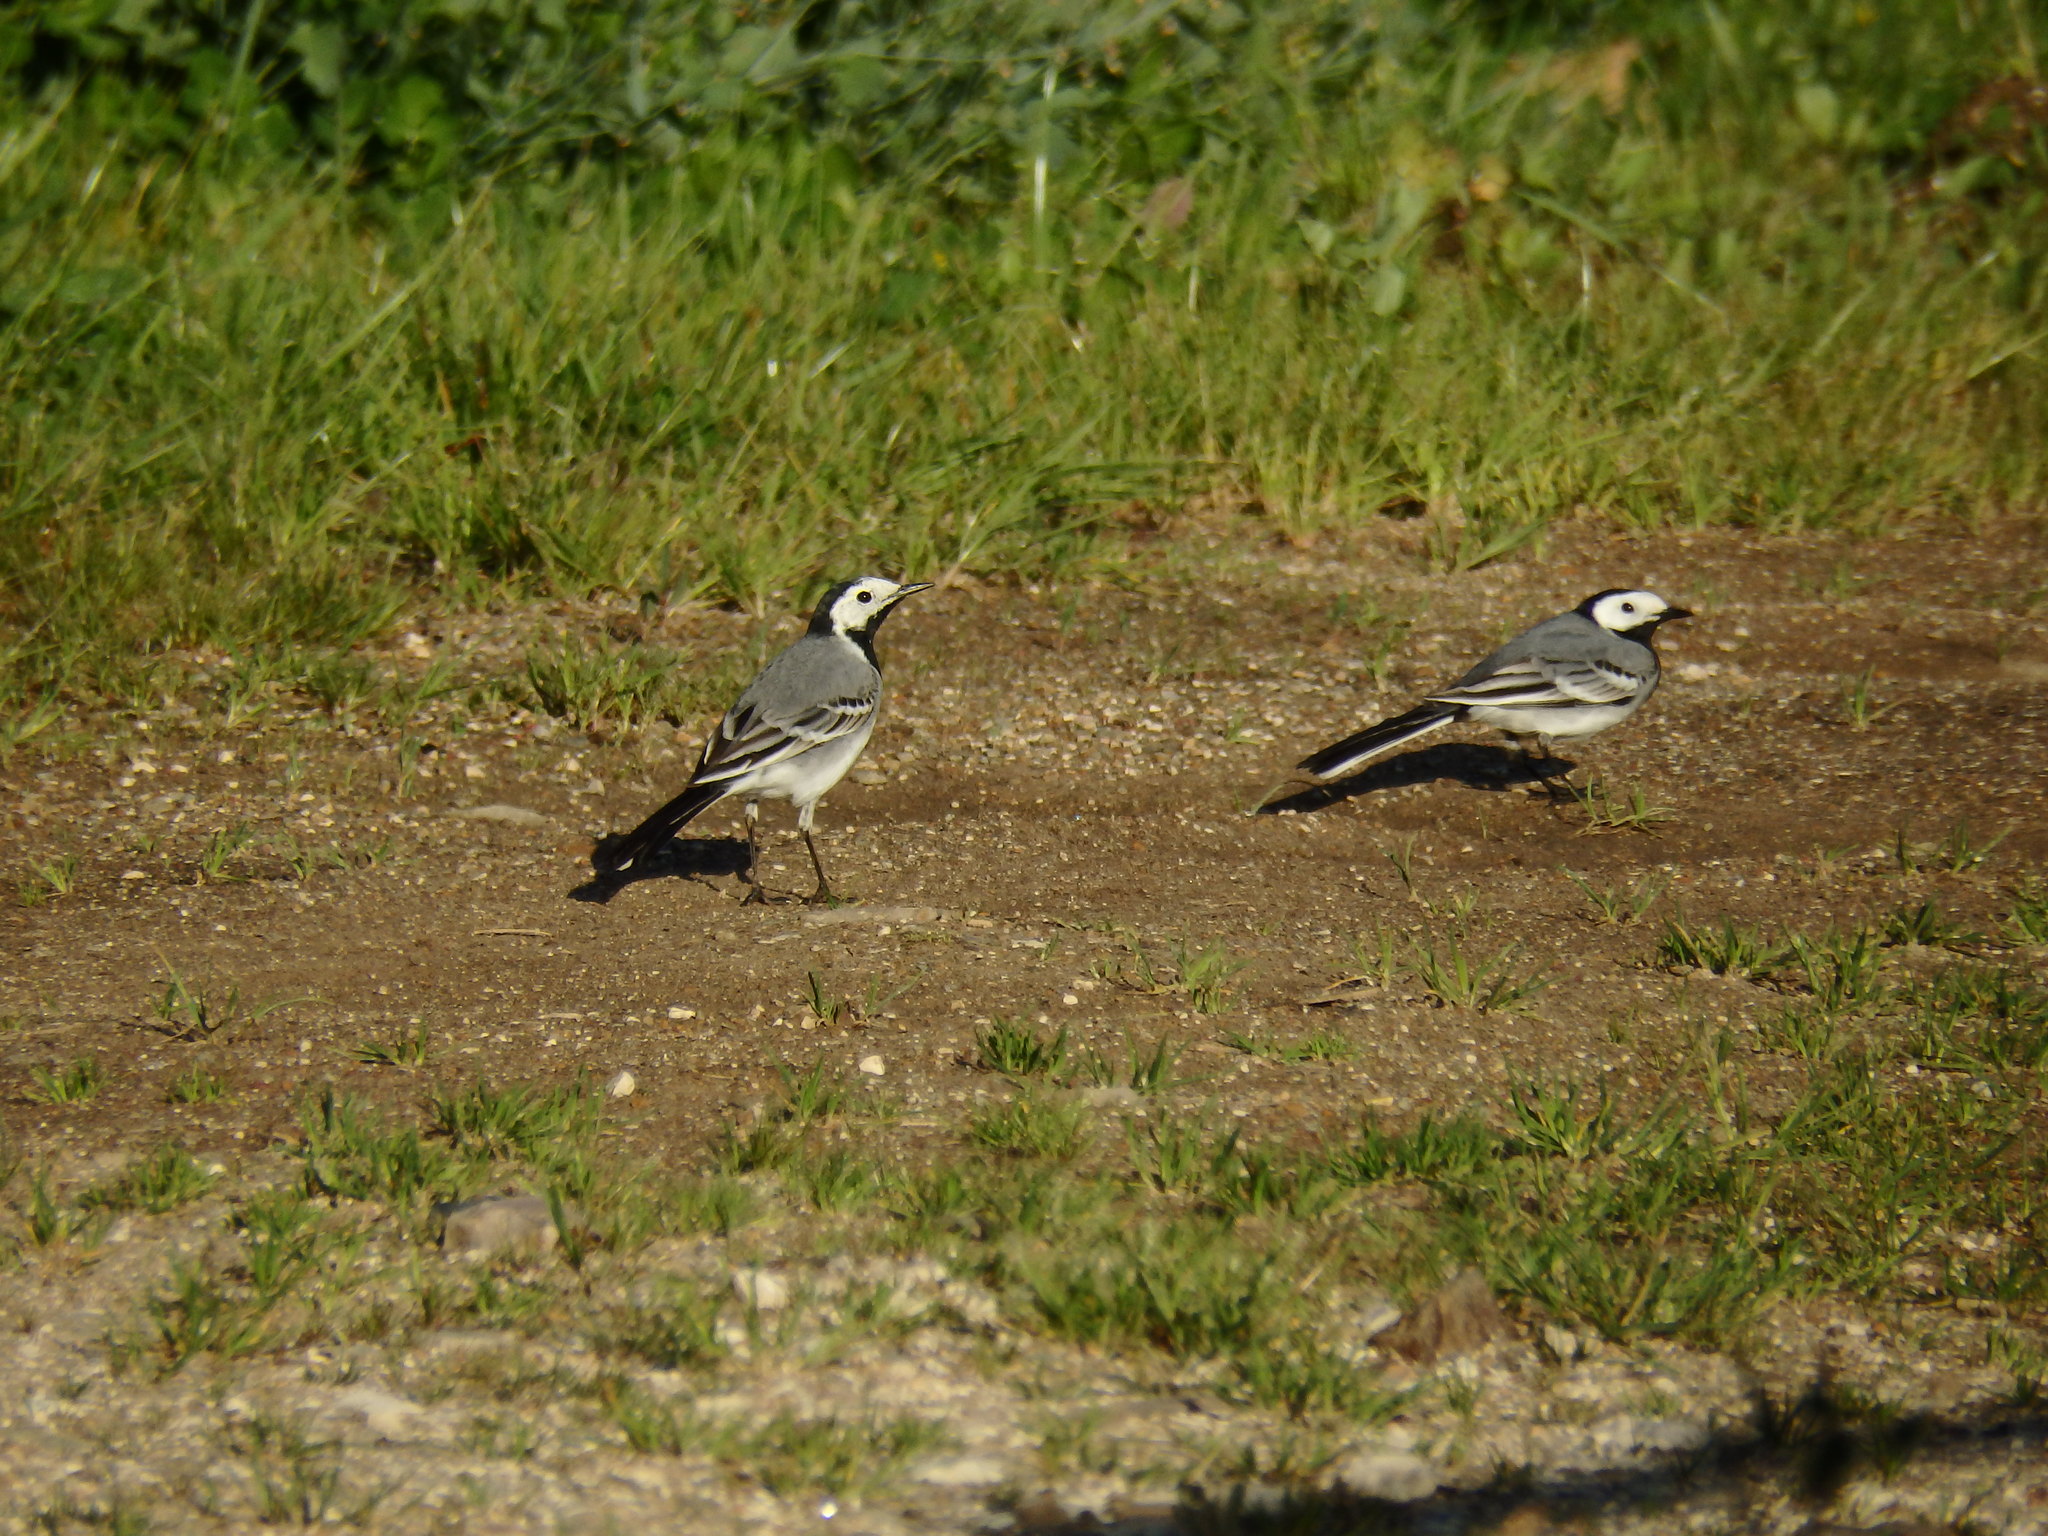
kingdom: Animalia
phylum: Chordata
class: Aves
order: Passeriformes
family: Motacillidae
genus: Motacilla
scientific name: Motacilla alba
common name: White wagtail
